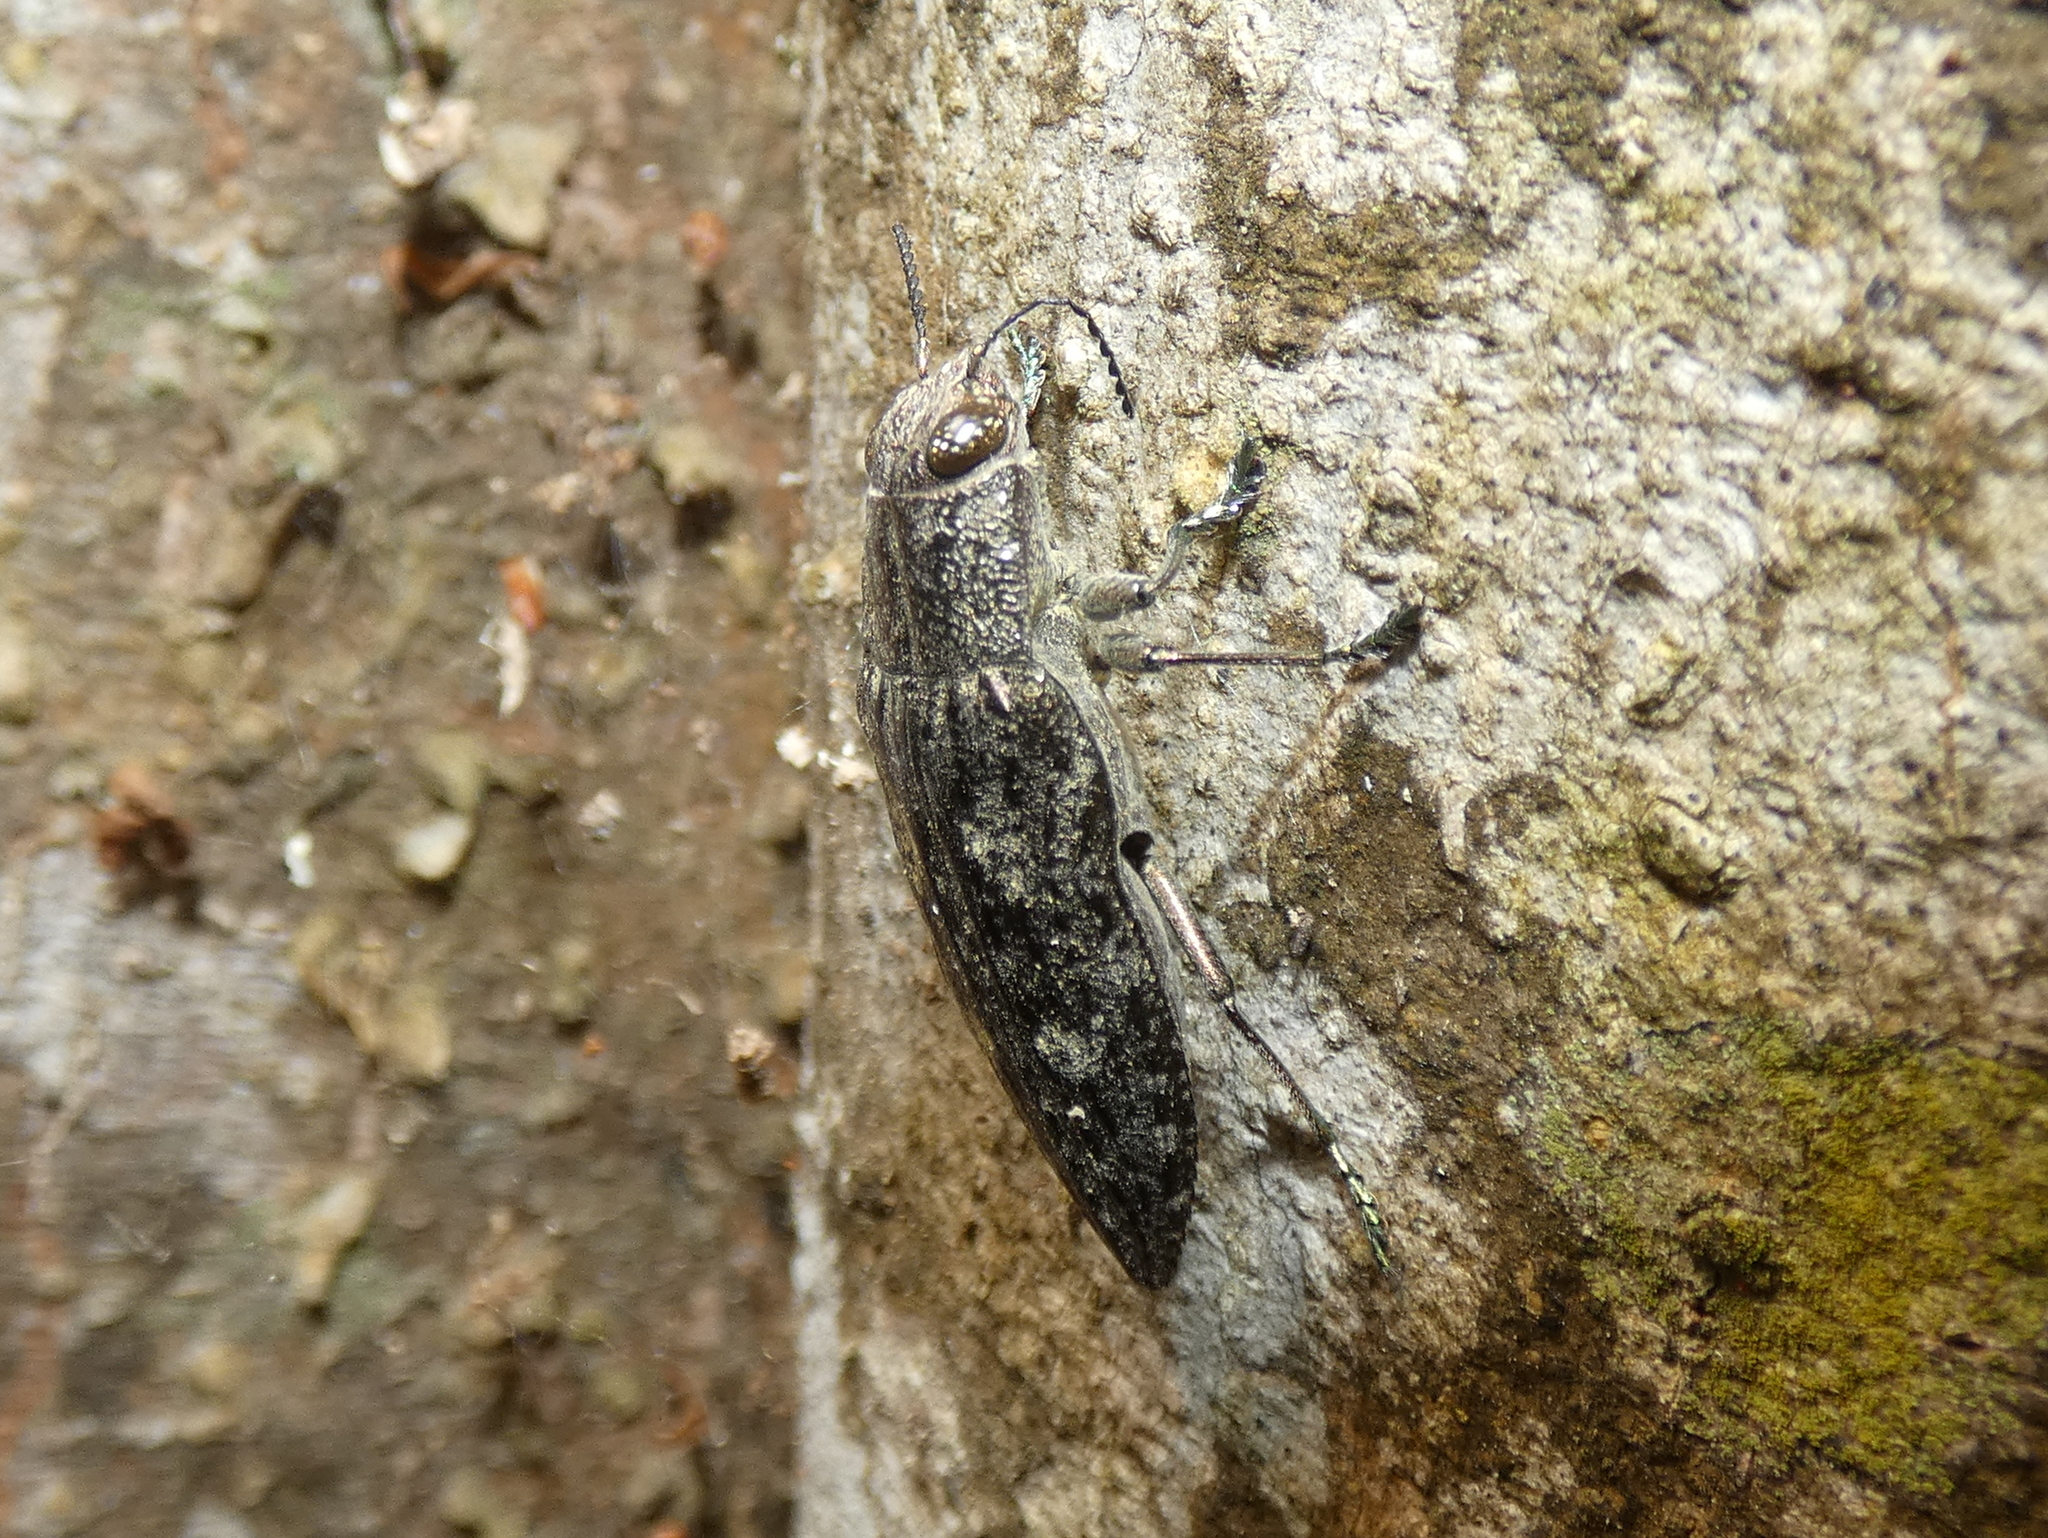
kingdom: Animalia
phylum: Arthropoda
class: Insecta
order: Coleoptera
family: Buprestidae
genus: Texania
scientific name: Texania campestris
